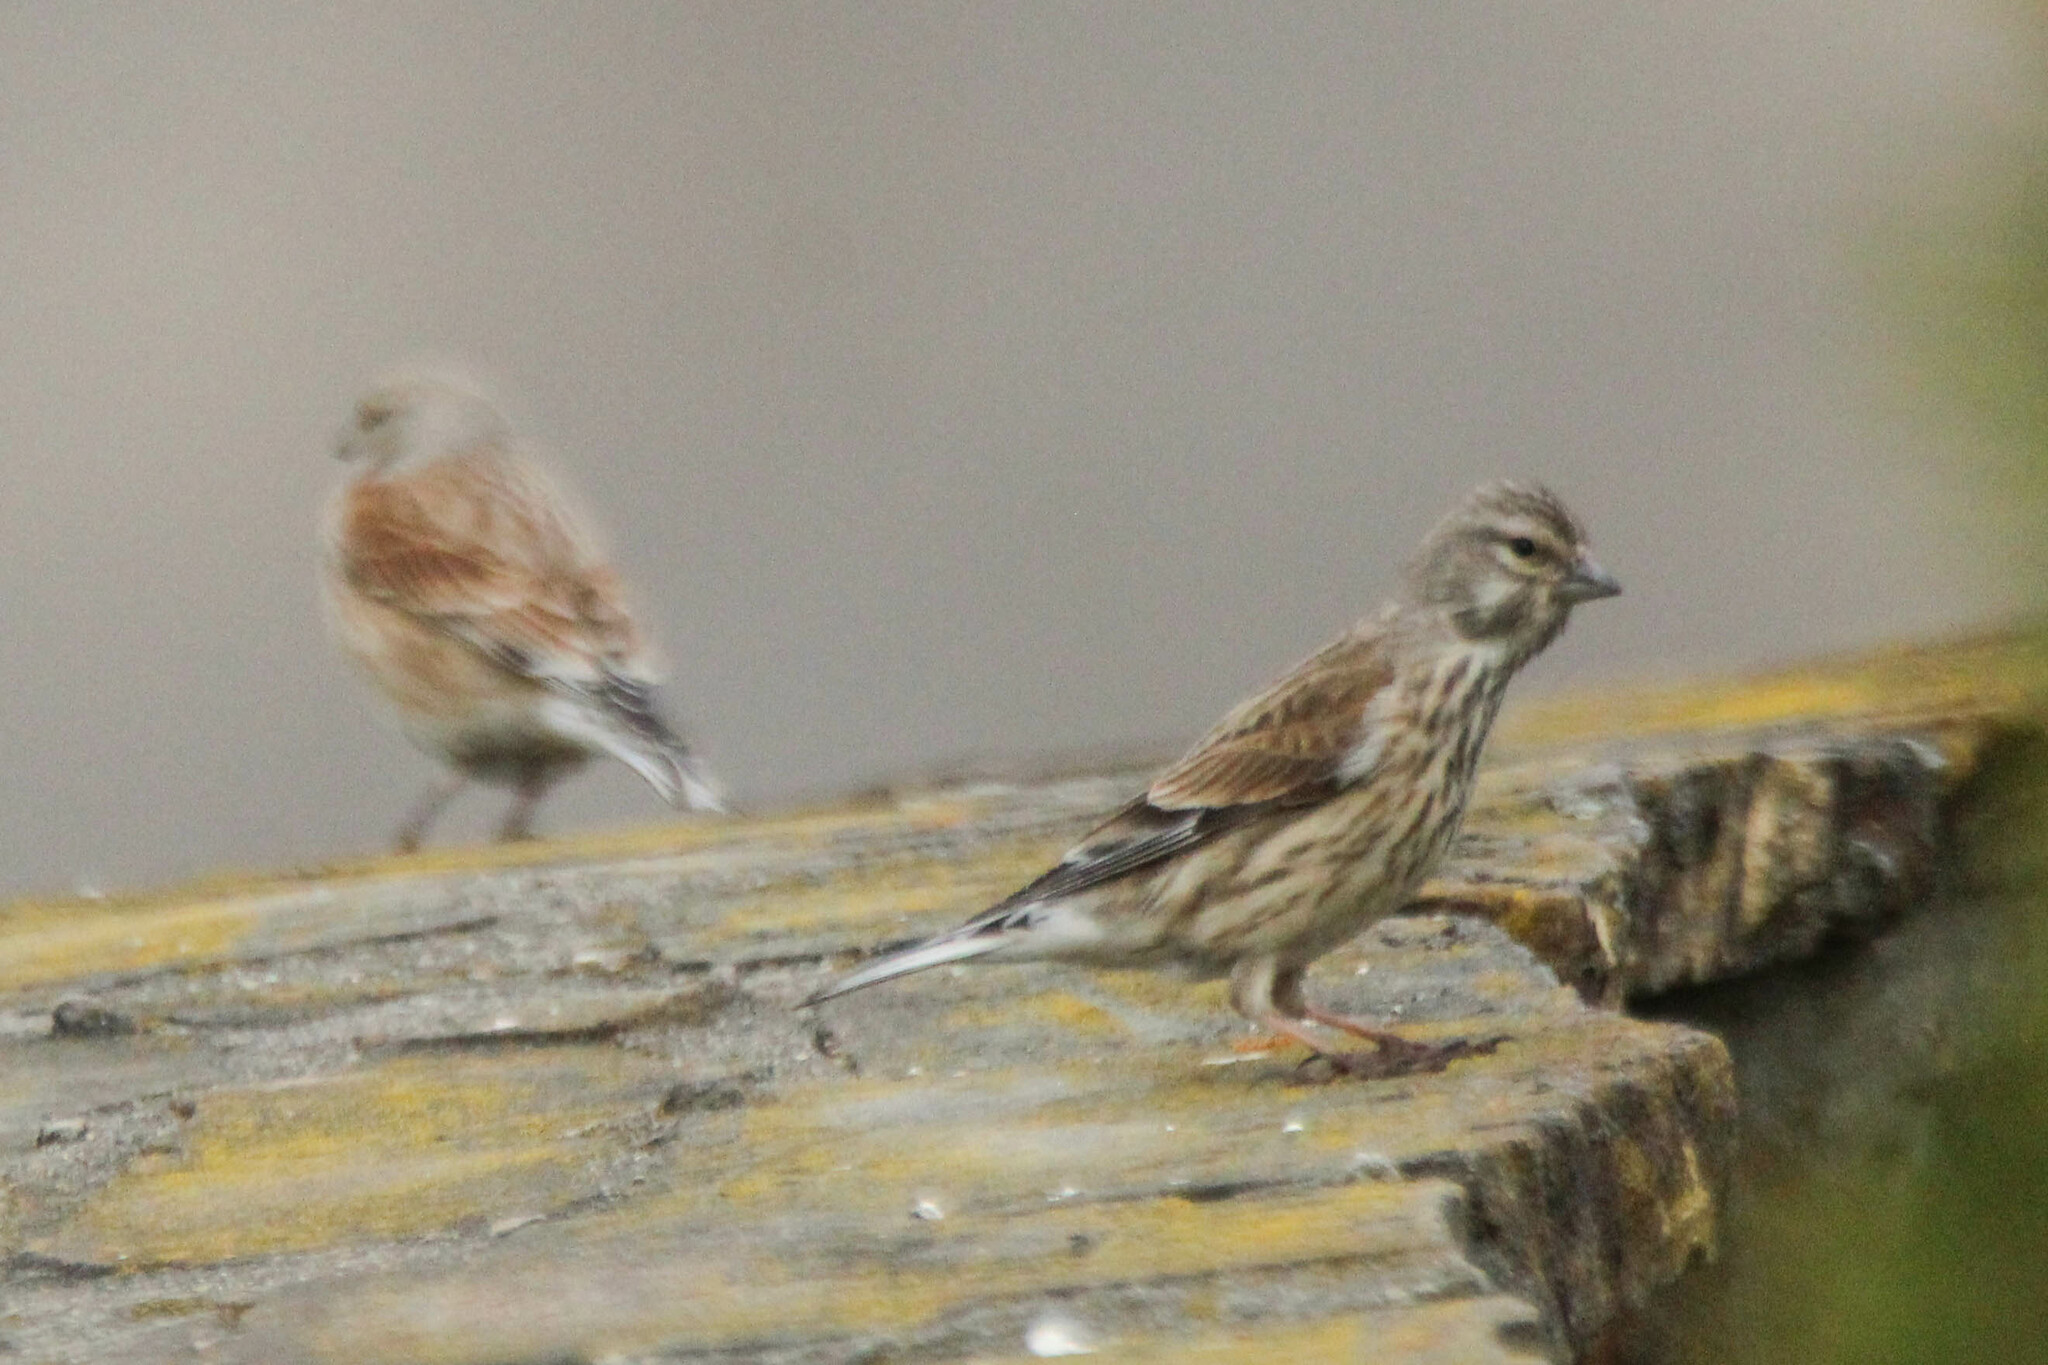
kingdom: Animalia
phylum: Chordata
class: Aves
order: Passeriformes
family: Fringillidae
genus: Linaria
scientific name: Linaria cannabina
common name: Common linnet
